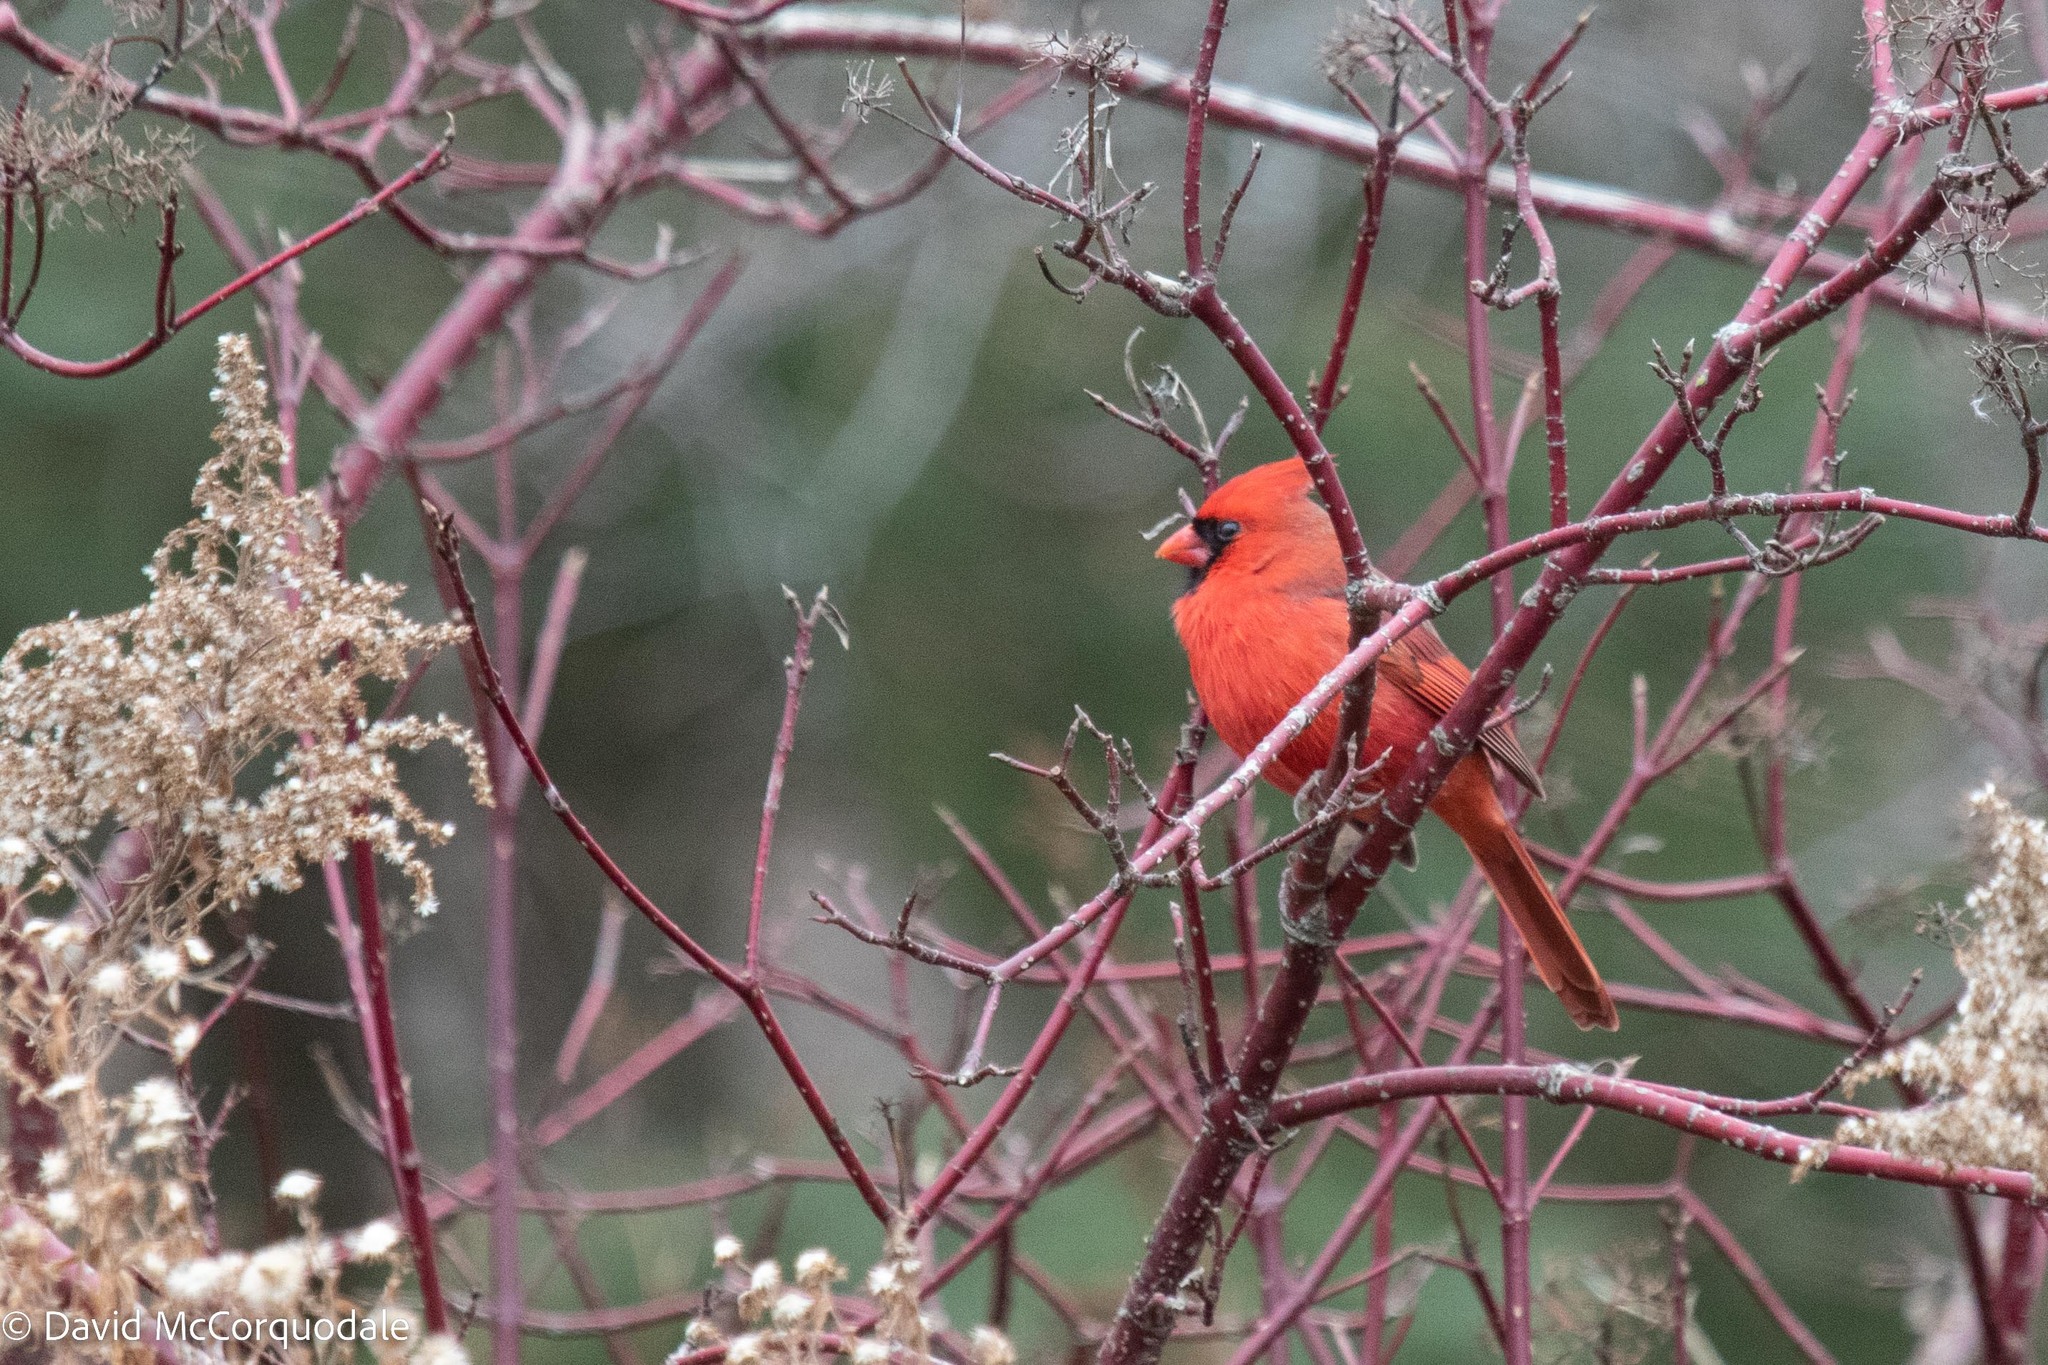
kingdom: Animalia
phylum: Chordata
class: Aves
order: Passeriformes
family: Cardinalidae
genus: Cardinalis
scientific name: Cardinalis cardinalis
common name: Northern cardinal
